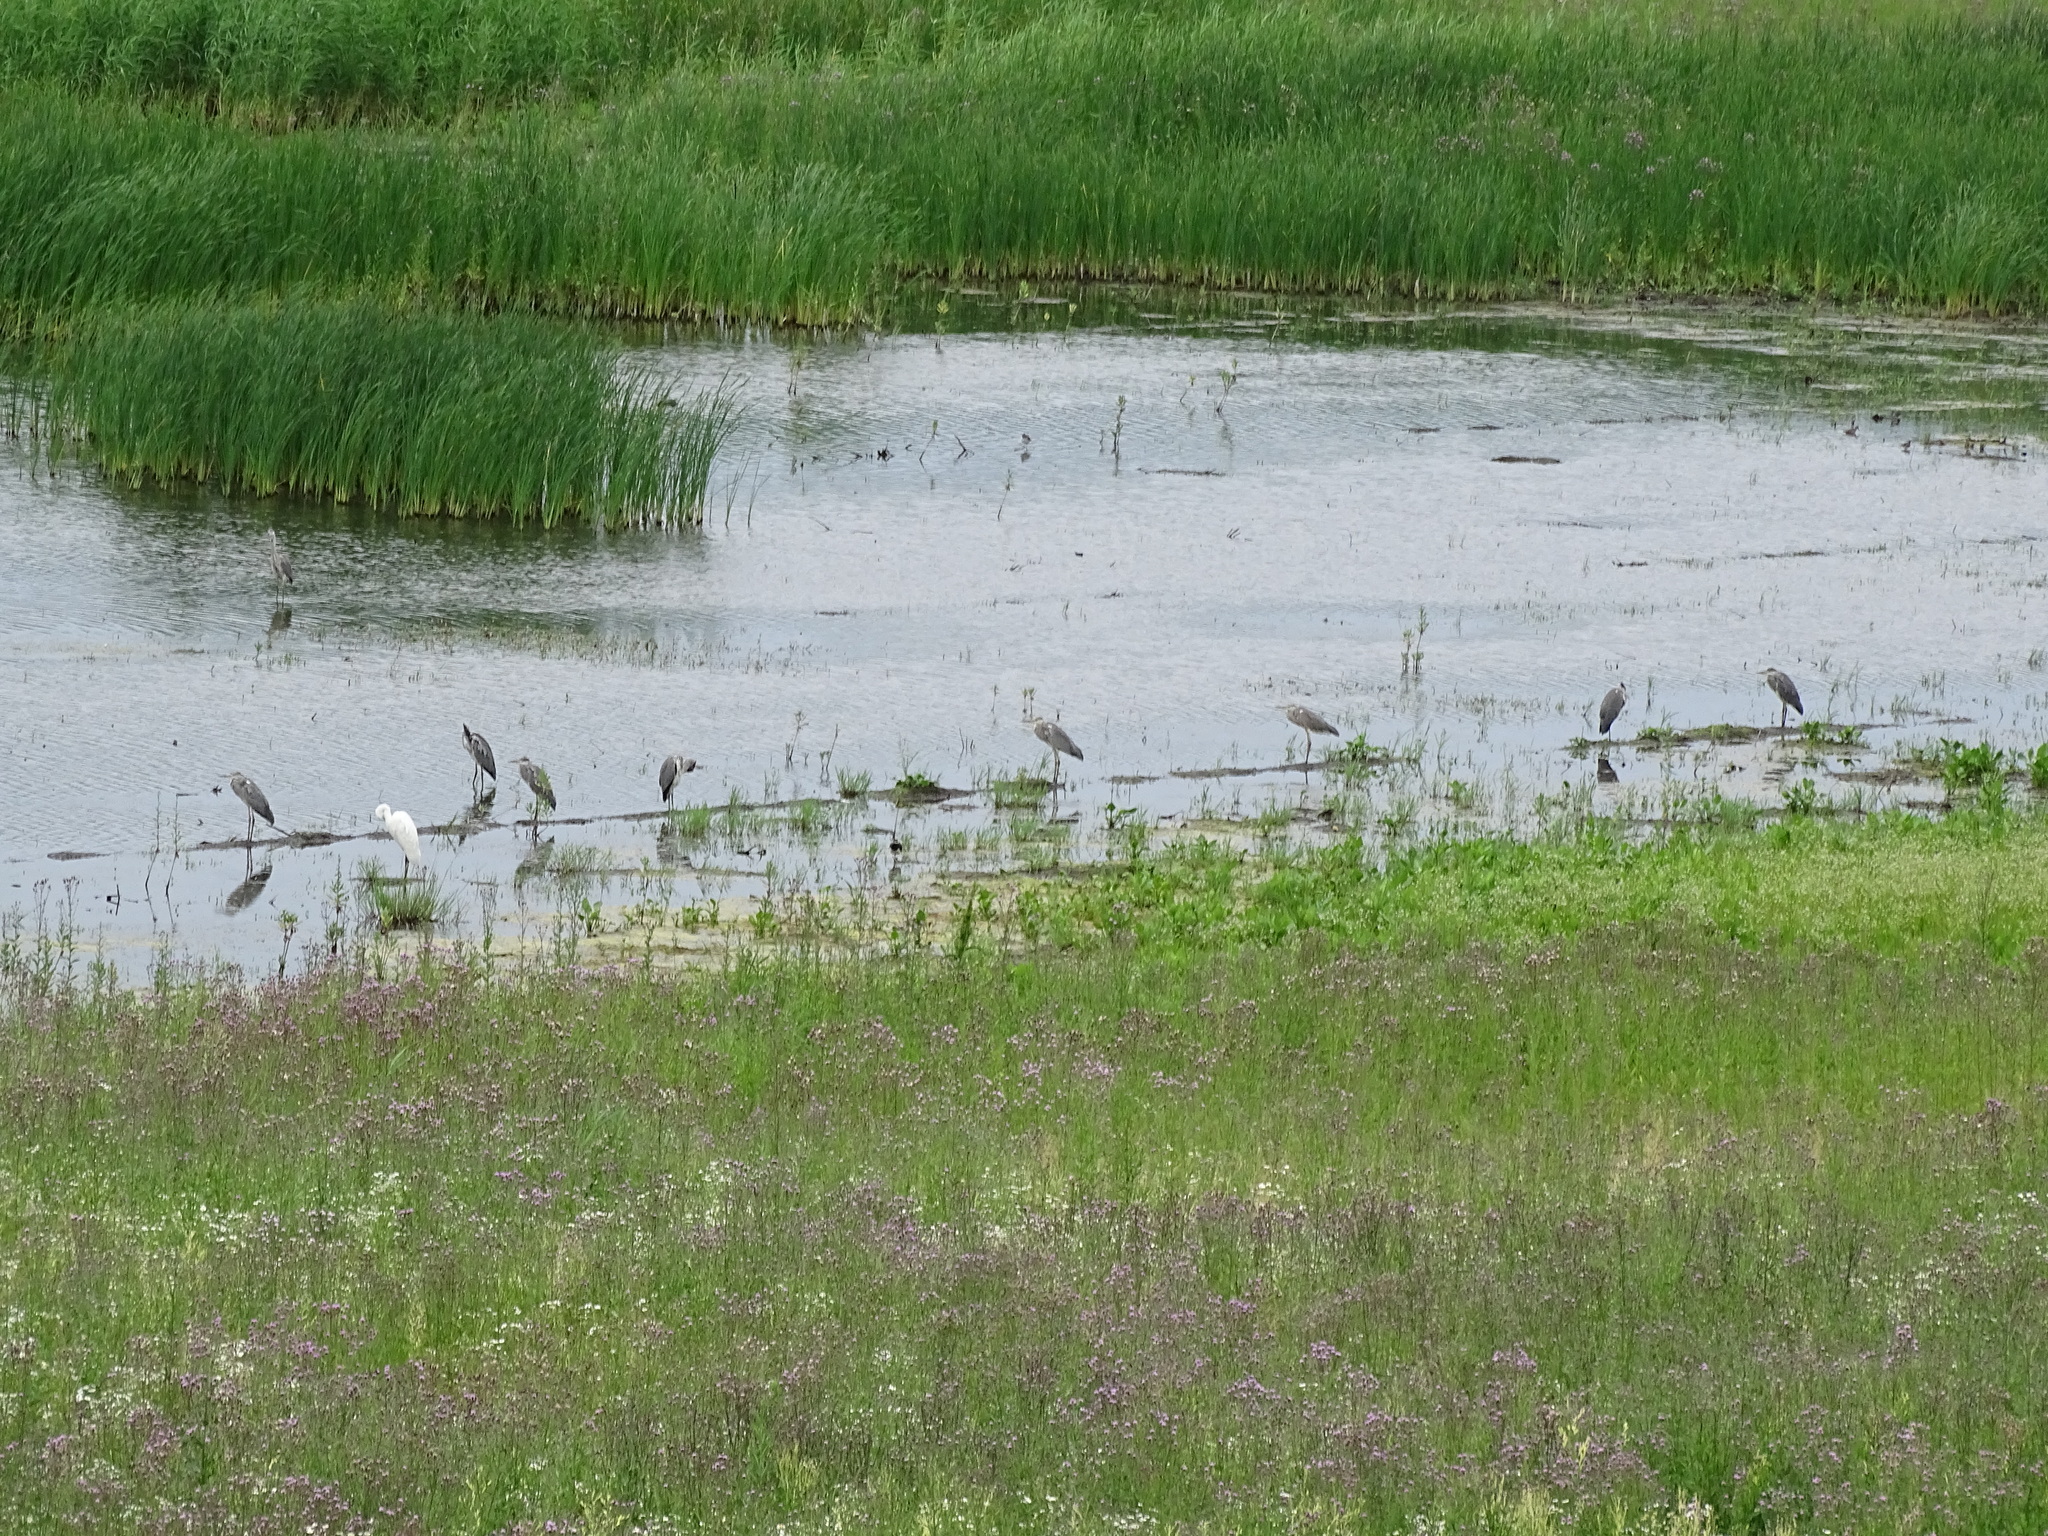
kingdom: Animalia
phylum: Chordata
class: Aves
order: Pelecaniformes
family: Ardeidae
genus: Ardea
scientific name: Ardea cinerea
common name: Grey heron
